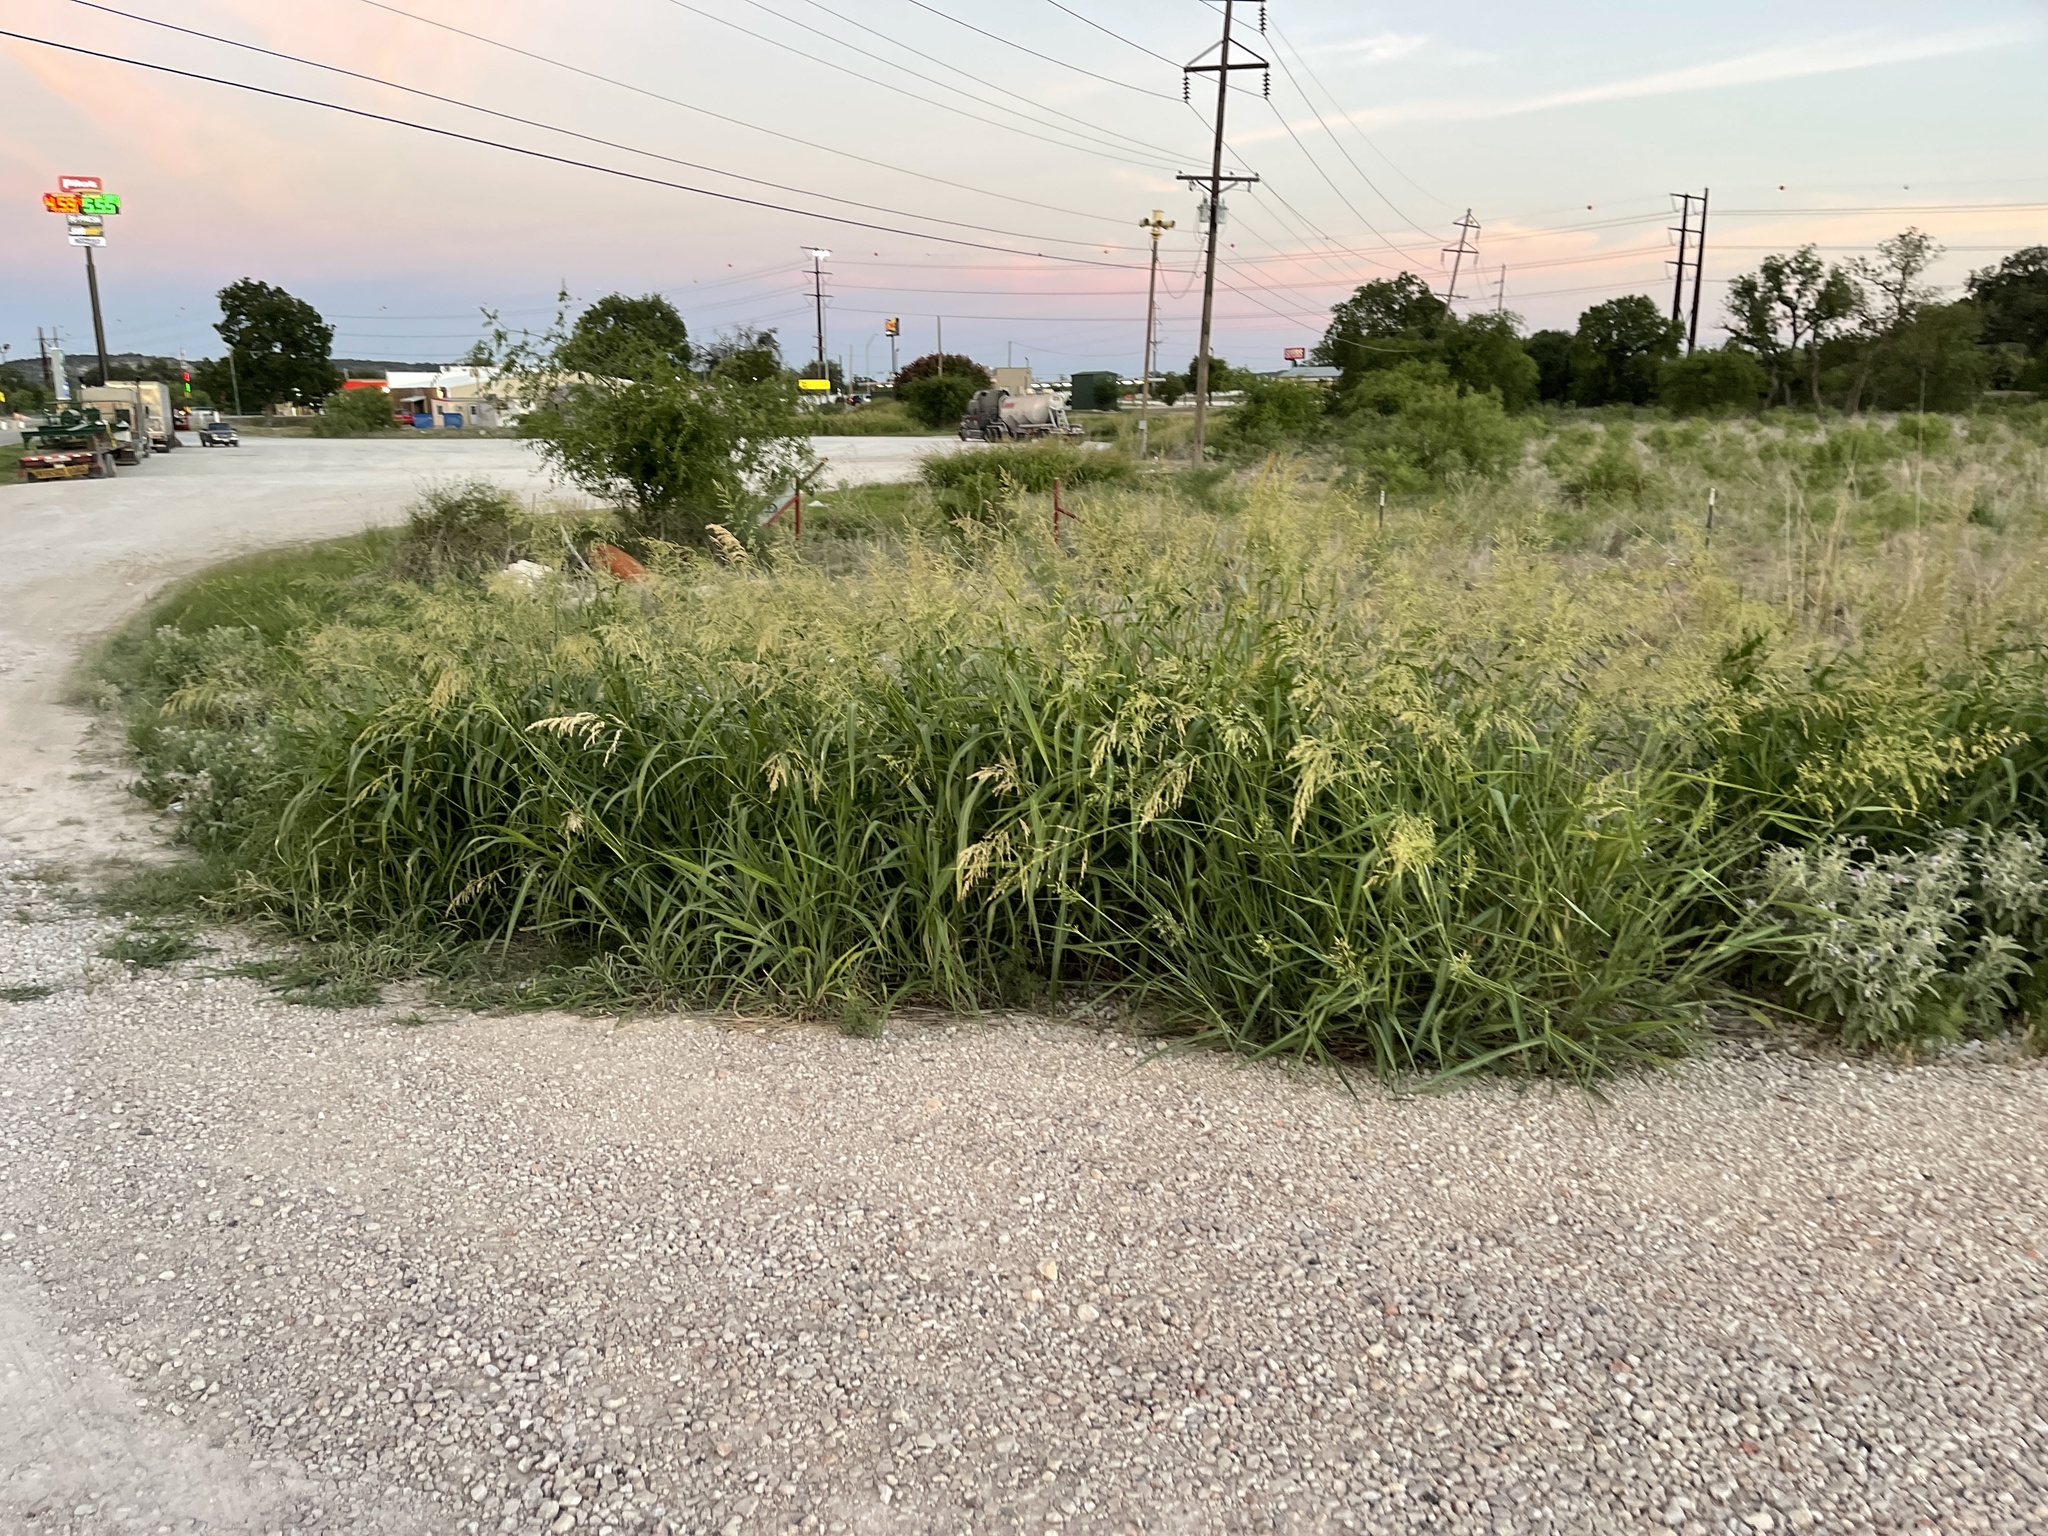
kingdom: Plantae
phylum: Tracheophyta
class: Liliopsida
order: Poales
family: Poaceae
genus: Sorghum
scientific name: Sorghum halepense
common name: Johnson-grass
